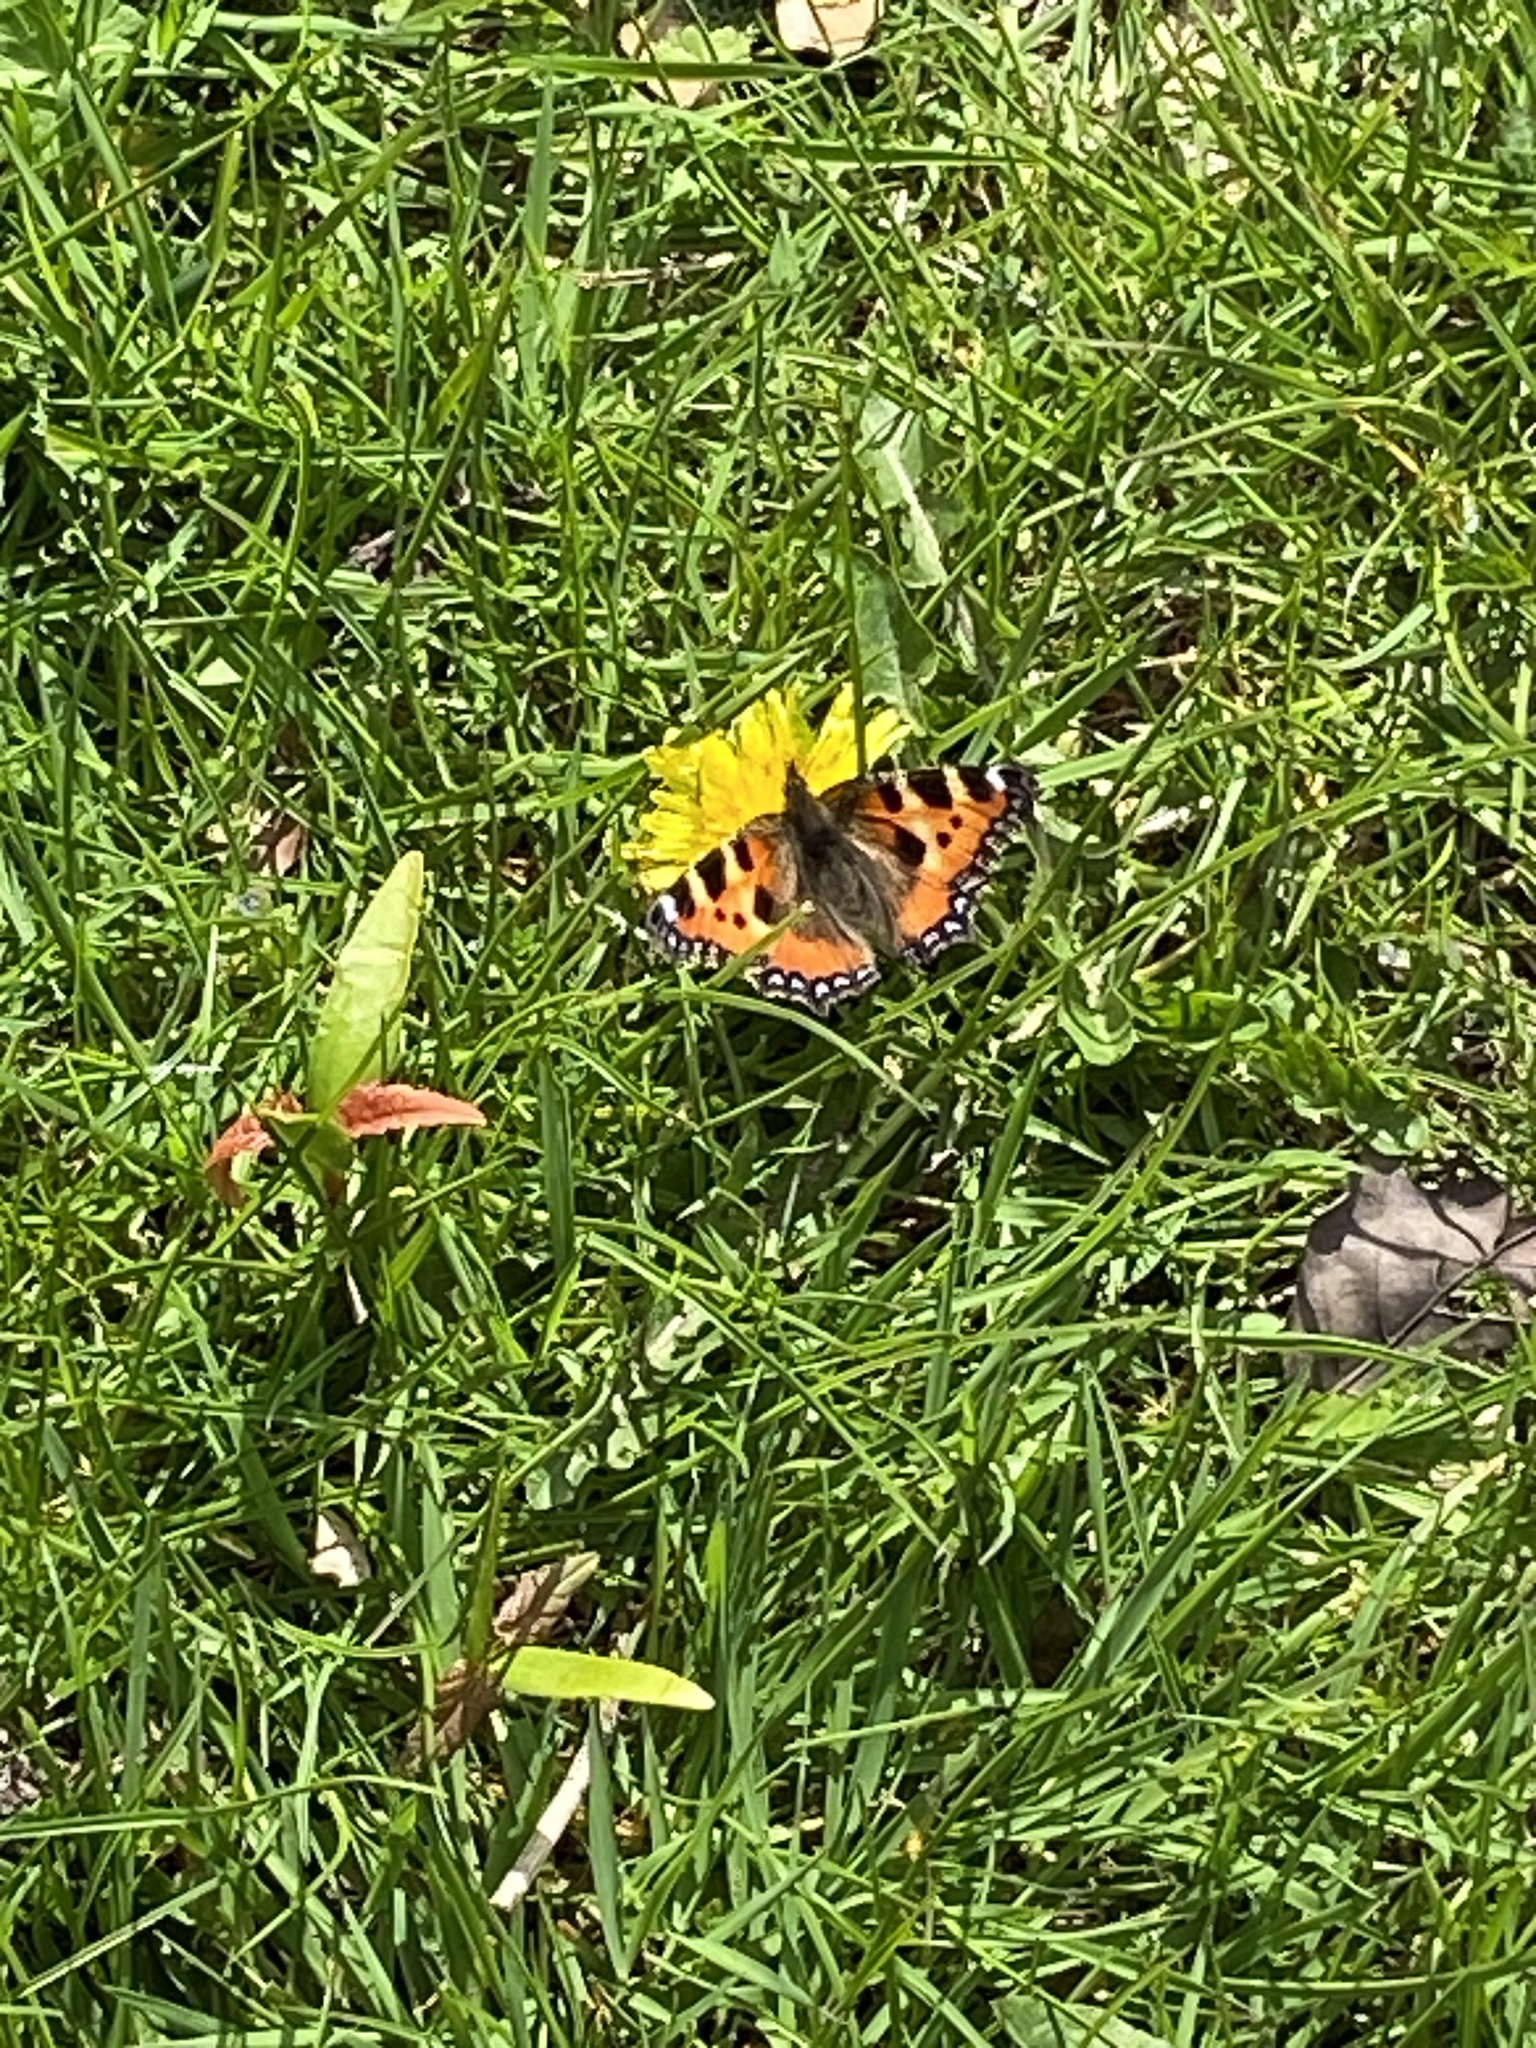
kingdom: Animalia
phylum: Arthropoda
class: Insecta
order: Lepidoptera
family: Nymphalidae
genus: Aglais
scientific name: Aglais urticae
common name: Small tortoiseshell
